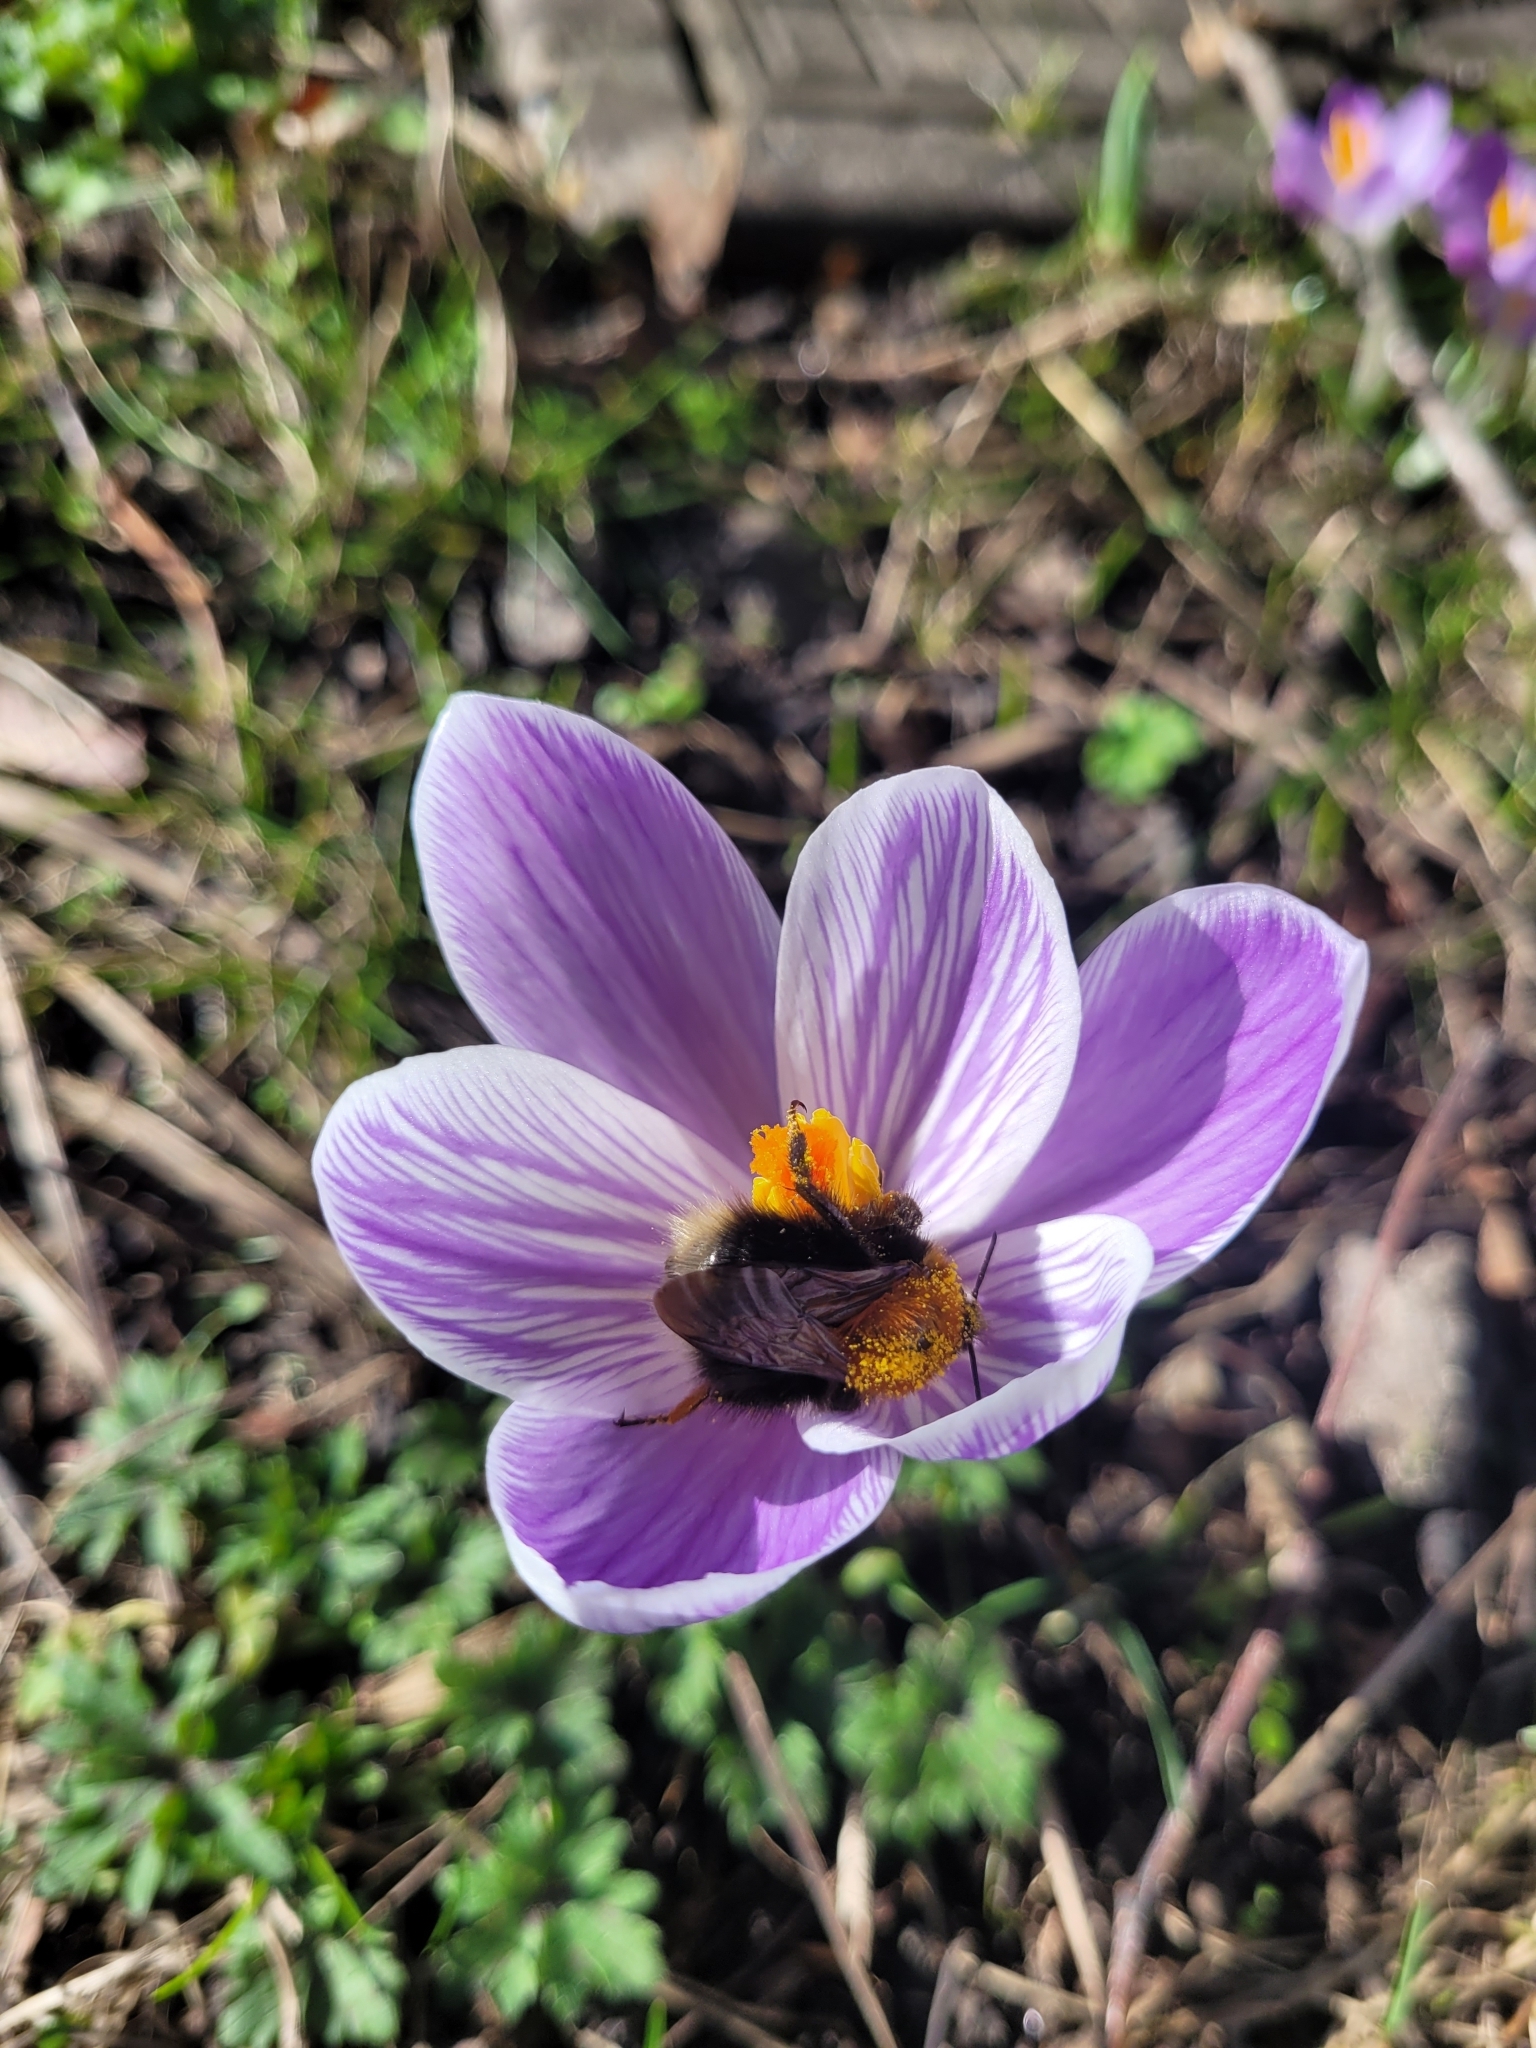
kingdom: Animalia
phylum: Arthropoda
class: Insecta
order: Hymenoptera
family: Apidae
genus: Bombus
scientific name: Bombus hypnorum
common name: New garden bumblebee
